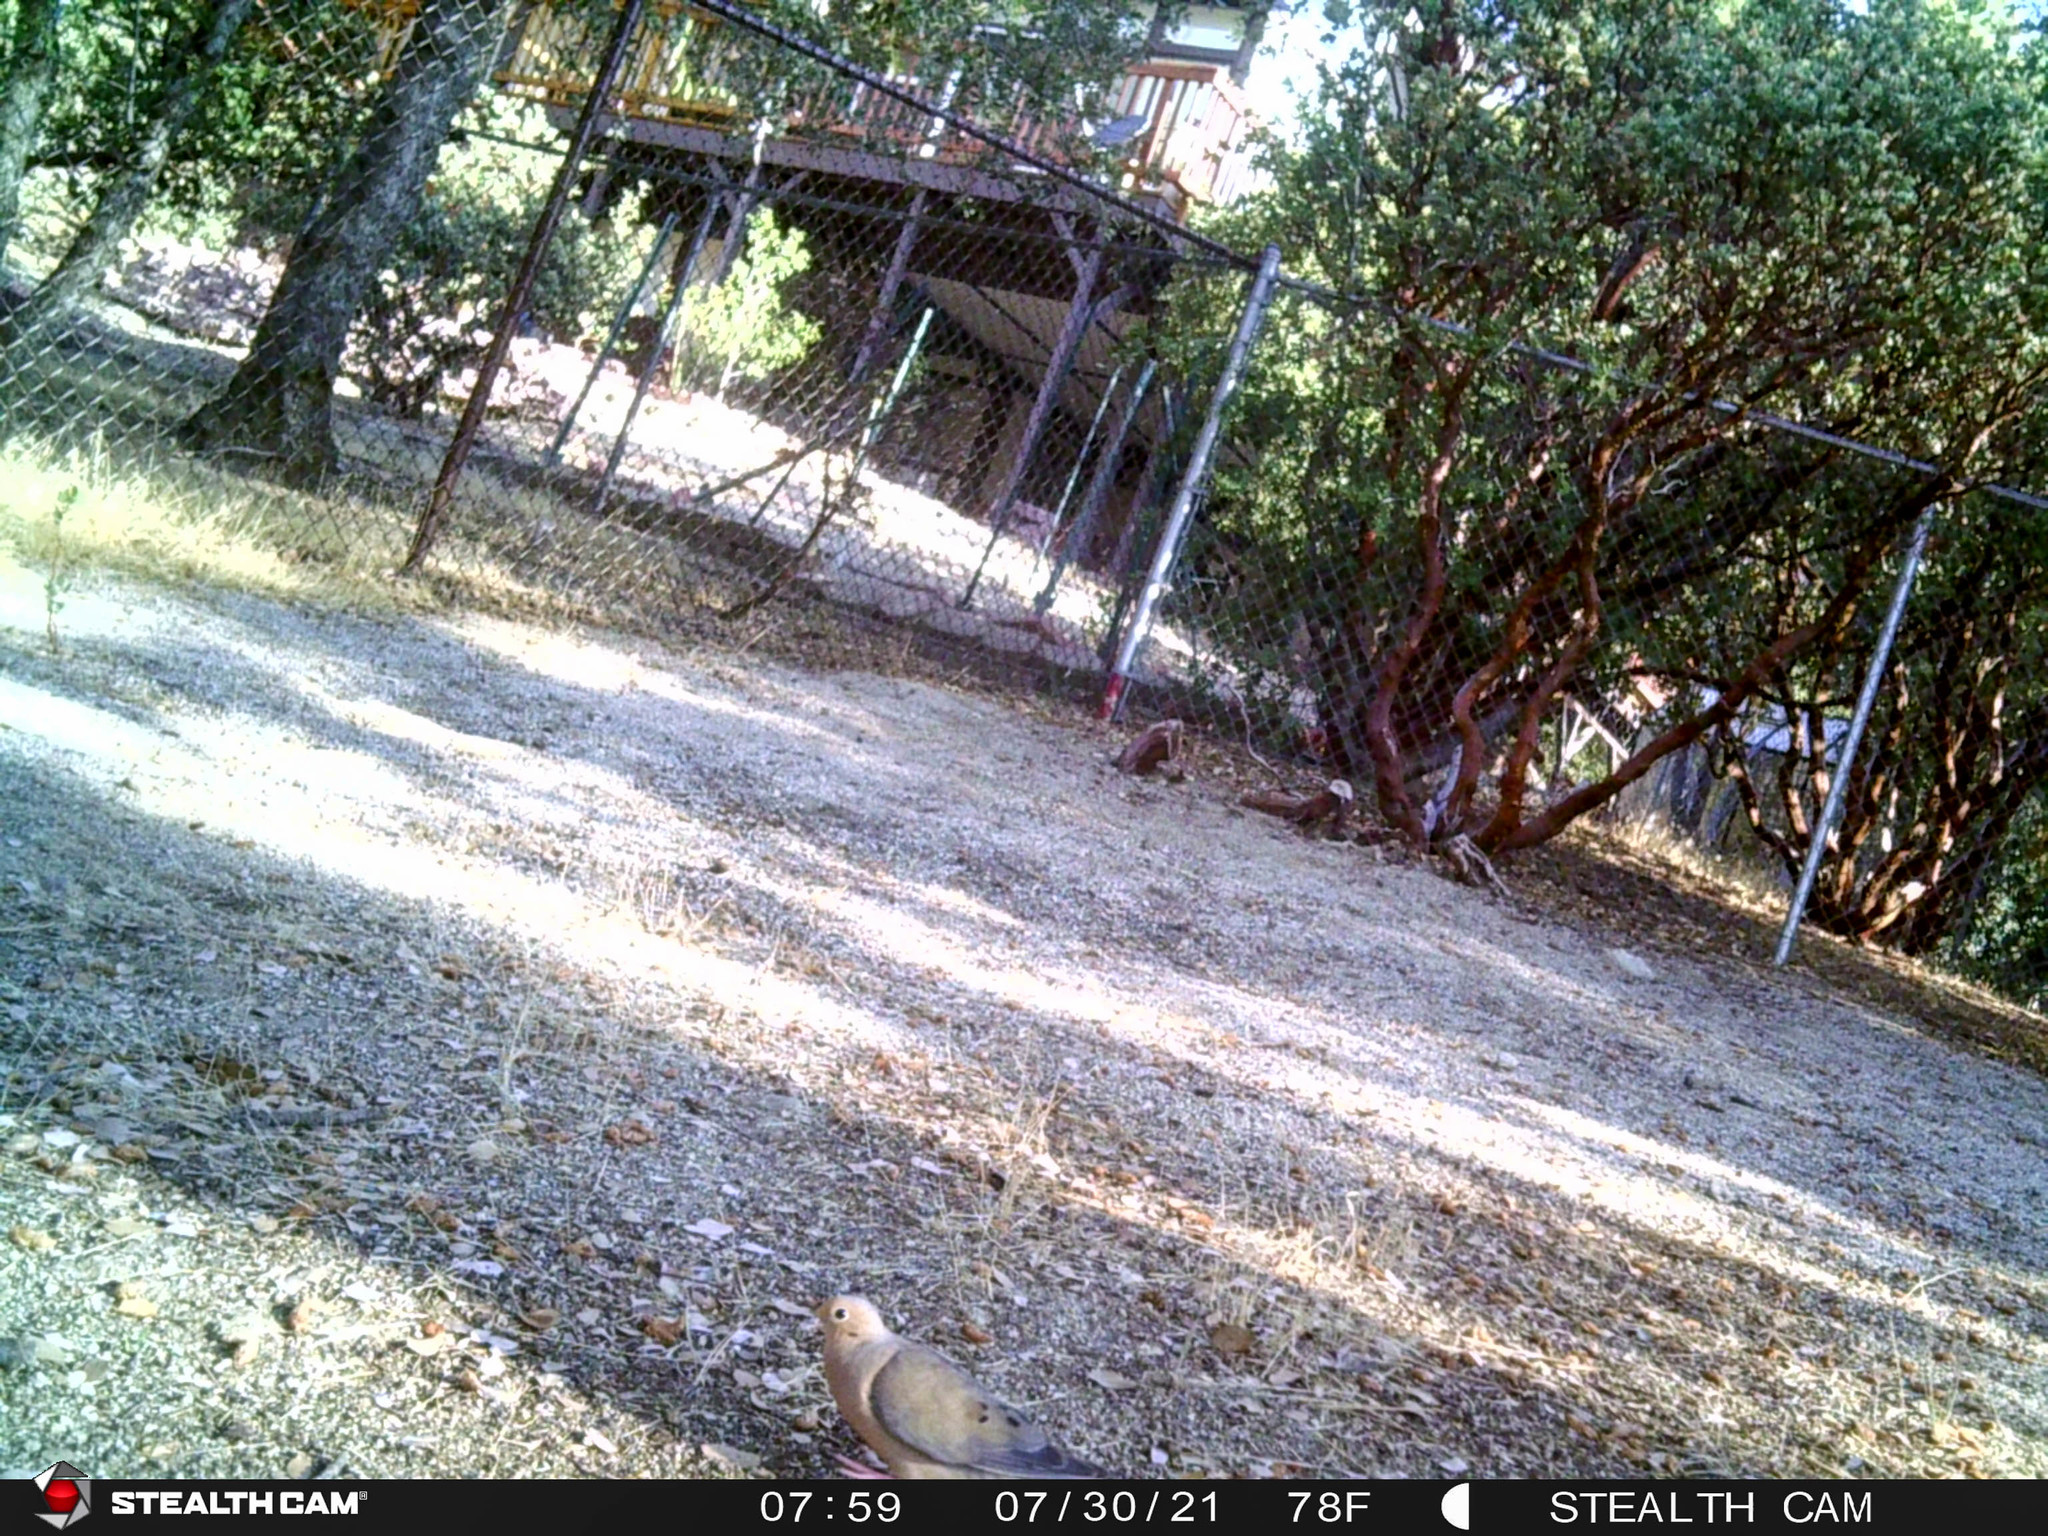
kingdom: Animalia
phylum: Chordata
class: Aves
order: Columbiformes
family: Columbidae
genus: Zenaida
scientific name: Zenaida macroura
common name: Mourning dove
